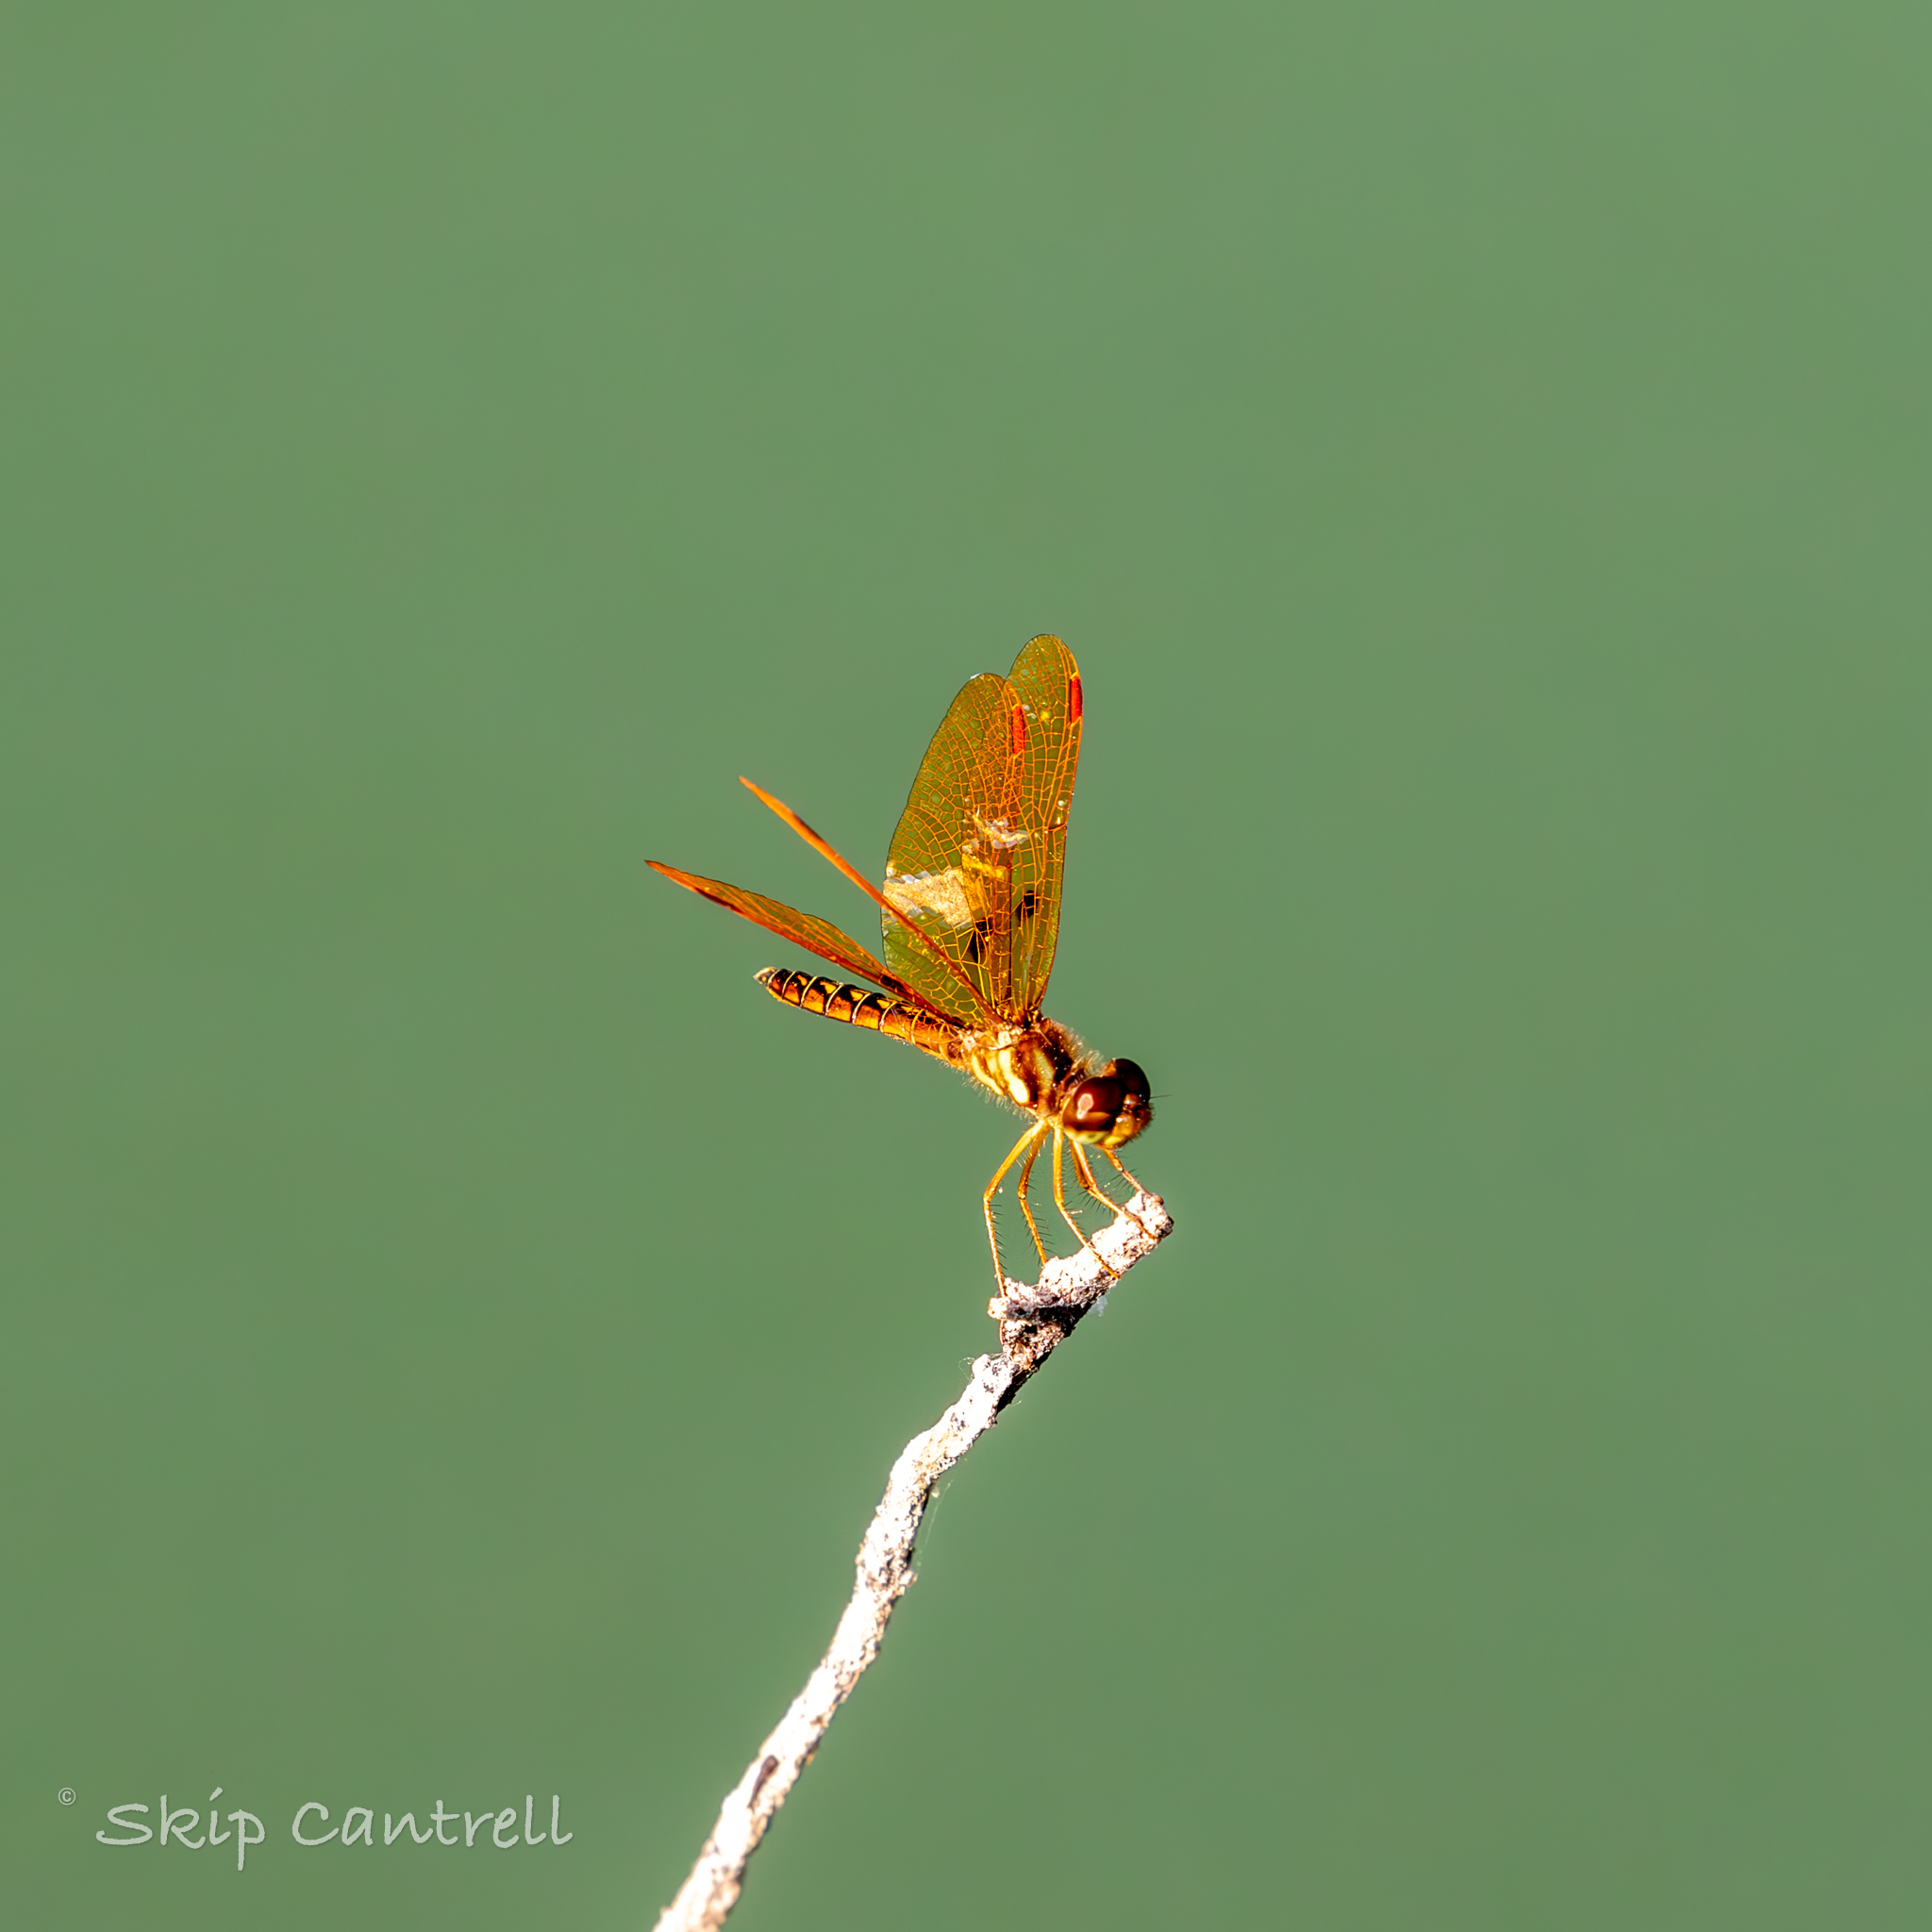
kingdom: Animalia
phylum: Arthropoda
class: Insecta
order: Odonata
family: Libellulidae
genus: Perithemis
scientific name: Perithemis tenera
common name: Eastern amberwing
